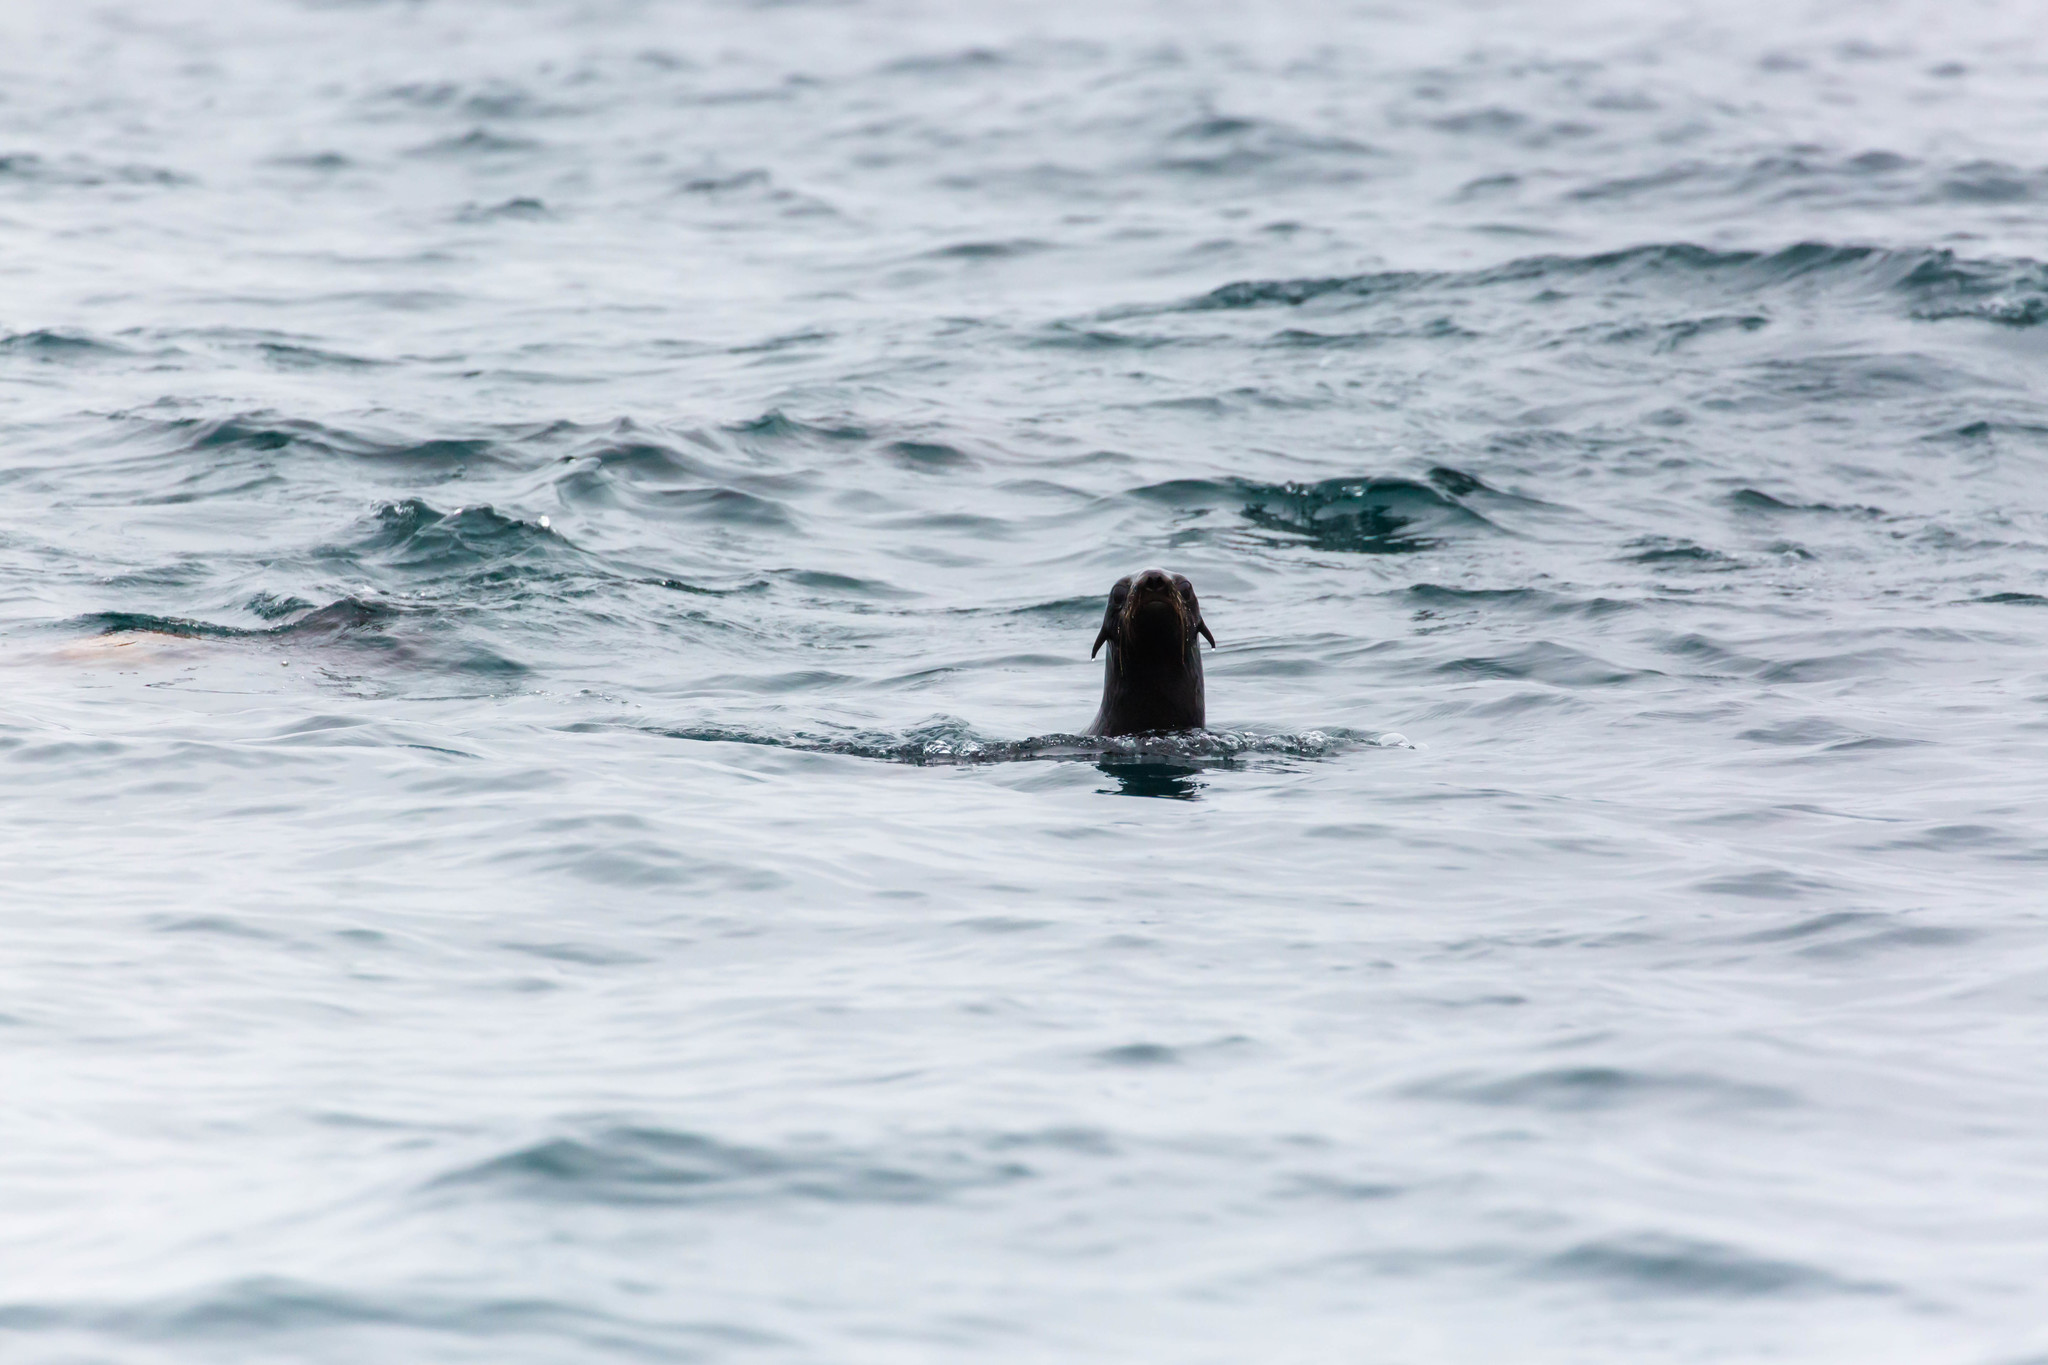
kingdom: Animalia
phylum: Chordata
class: Mammalia
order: Carnivora
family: Otariidae
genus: Callorhinus
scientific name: Callorhinus ursinus
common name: Northern fur seal
